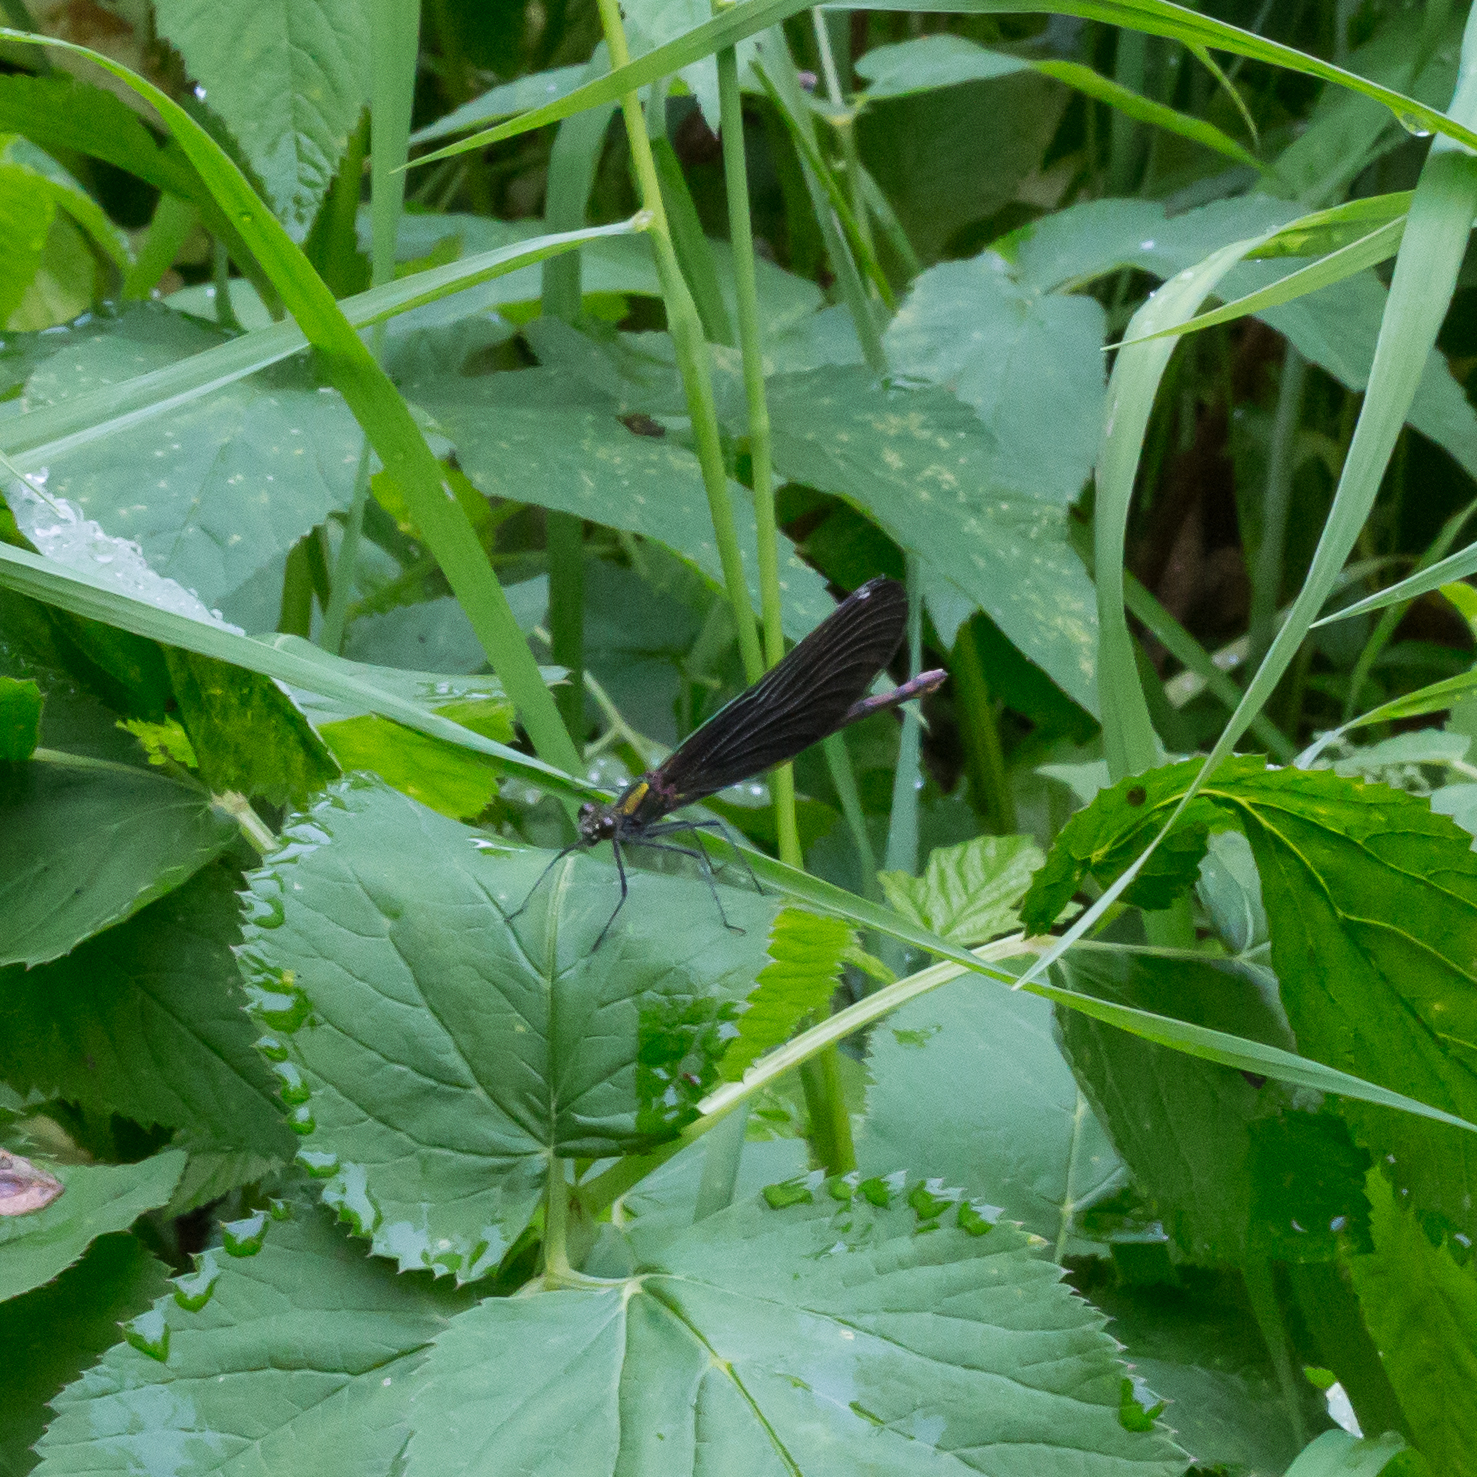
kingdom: Animalia
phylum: Arthropoda
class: Insecta
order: Odonata
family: Calopterygidae
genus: Calopteryx
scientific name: Calopteryx virgo
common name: Beautiful demoiselle
